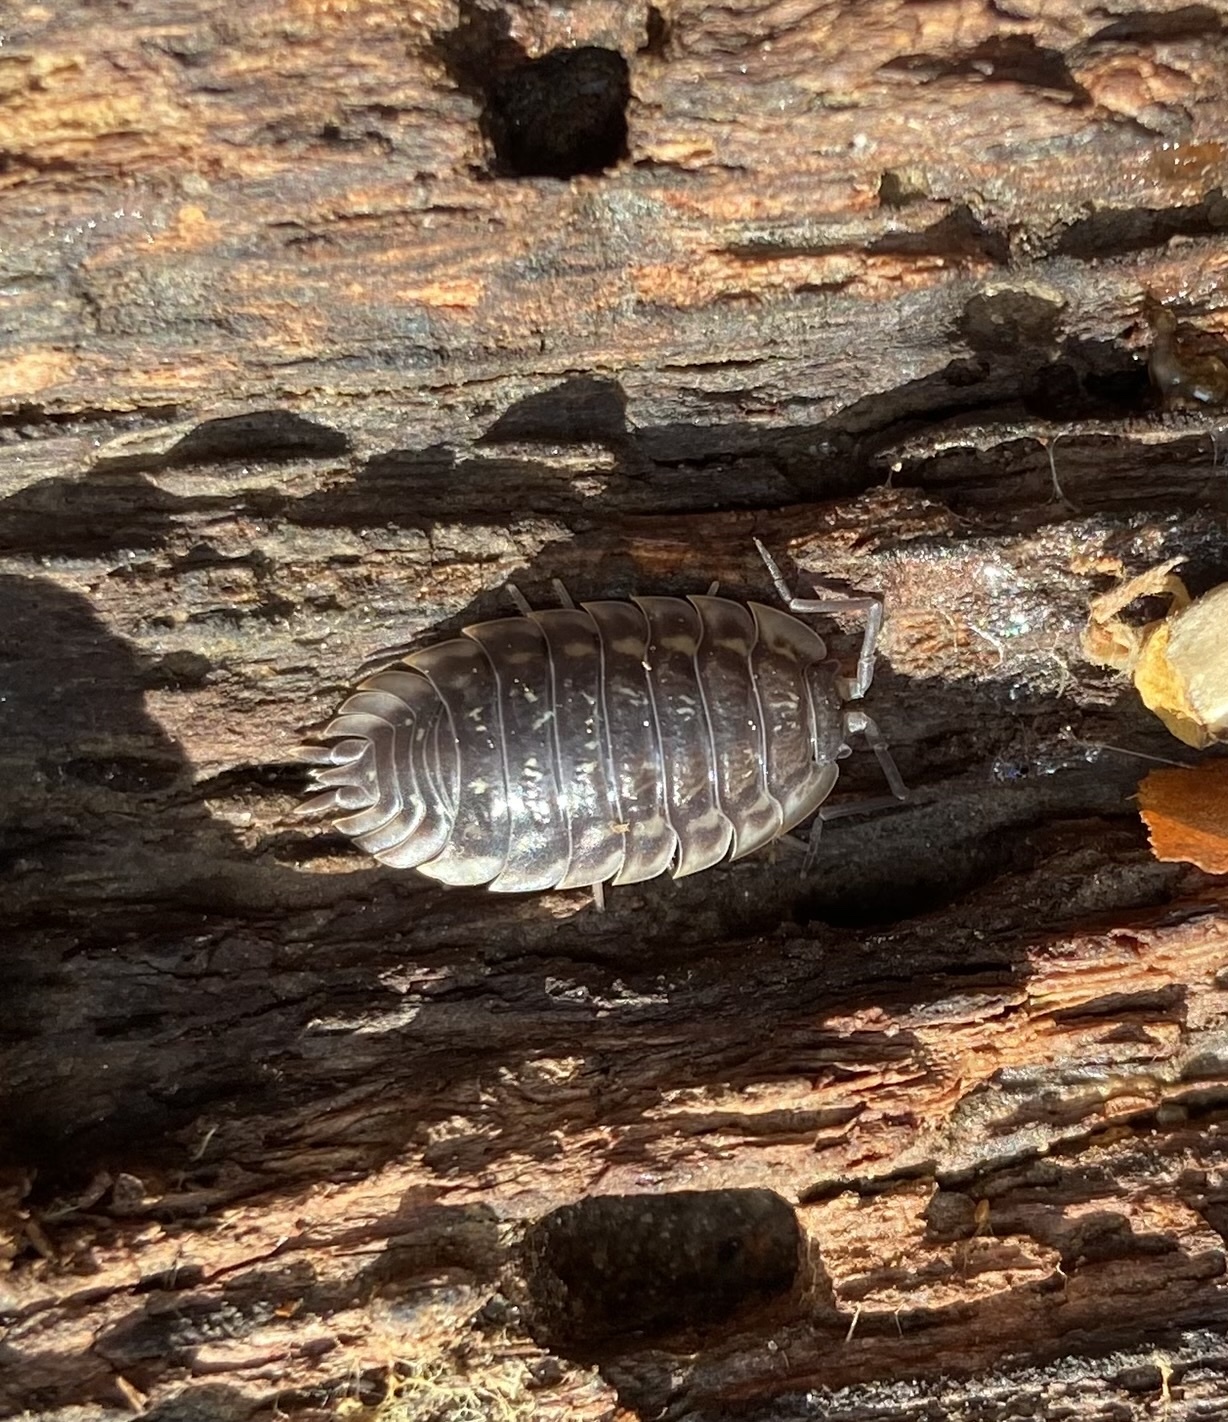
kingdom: Animalia
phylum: Arthropoda
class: Malacostraca
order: Isopoda
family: Oniscidae
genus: Oniscus
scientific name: Oniscus asellus
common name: Common shiny woodlouse
